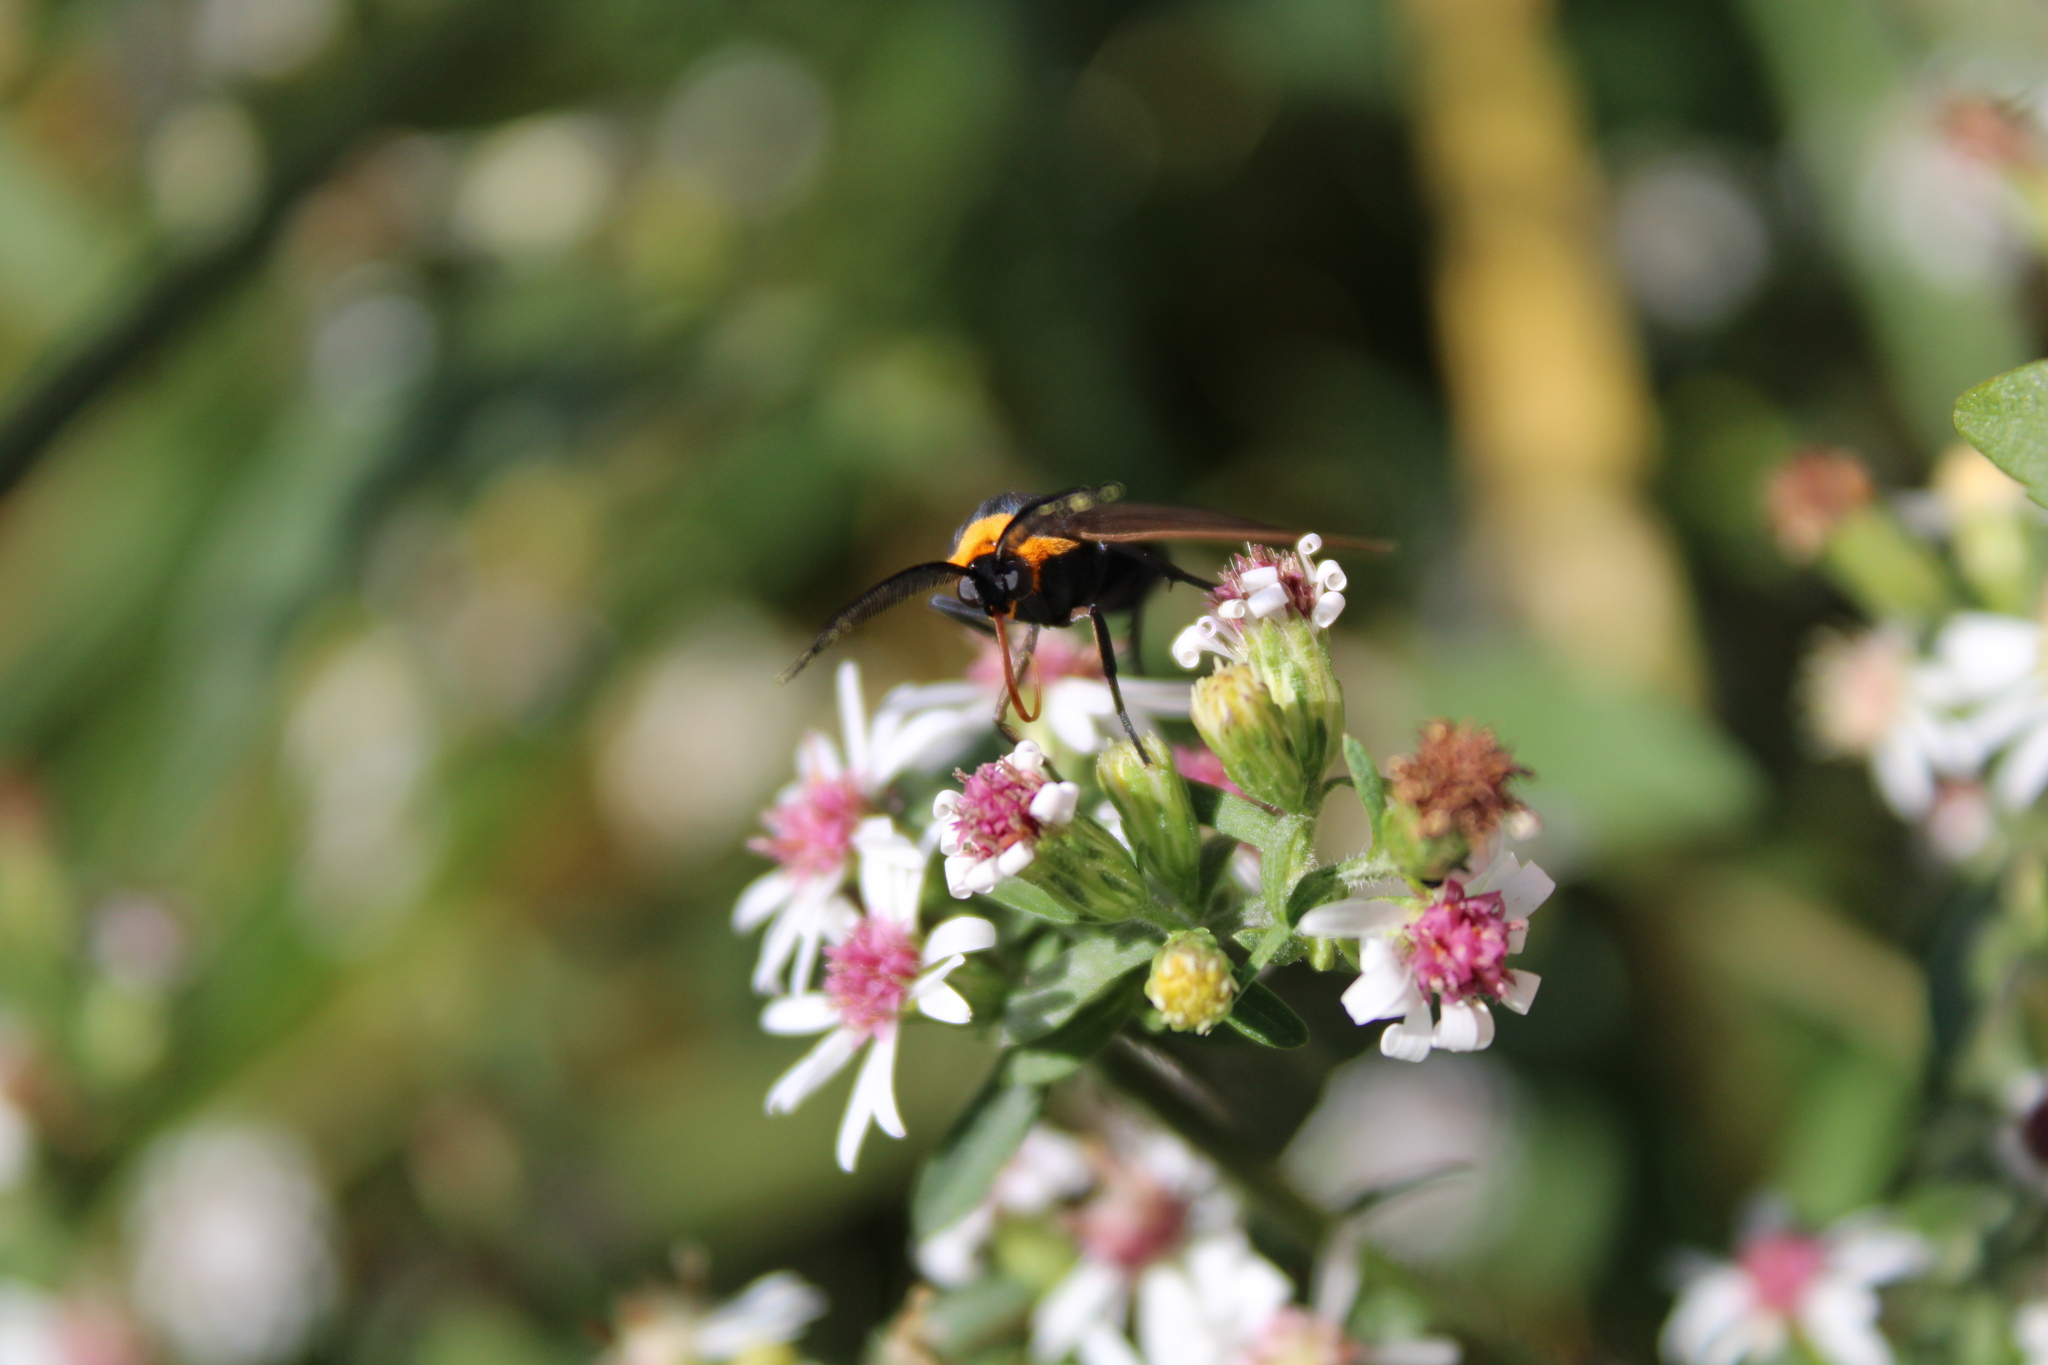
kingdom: Animalia
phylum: Arthropoda
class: Insecta
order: Lepidoptera
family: Erebidae
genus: Cisseps
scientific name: Cisseps fulvicollis
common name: Yellow-collared scape moth
